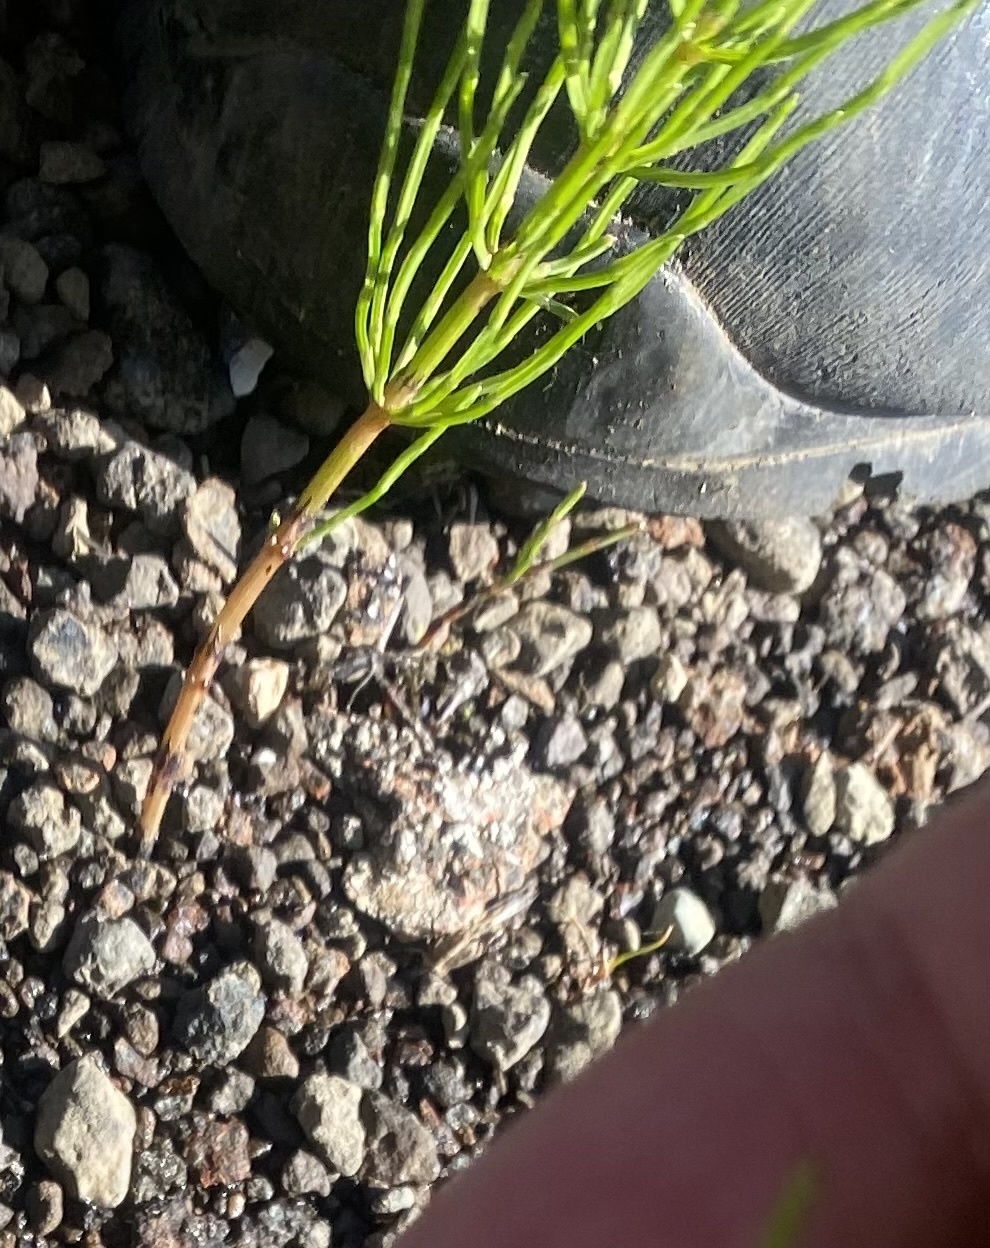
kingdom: Plantae
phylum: Tracheophyta
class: Polypodiopsida
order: Equisetales
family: Equisetaceae
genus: Equisetum
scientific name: Equisetum arvense
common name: Field horsetail
